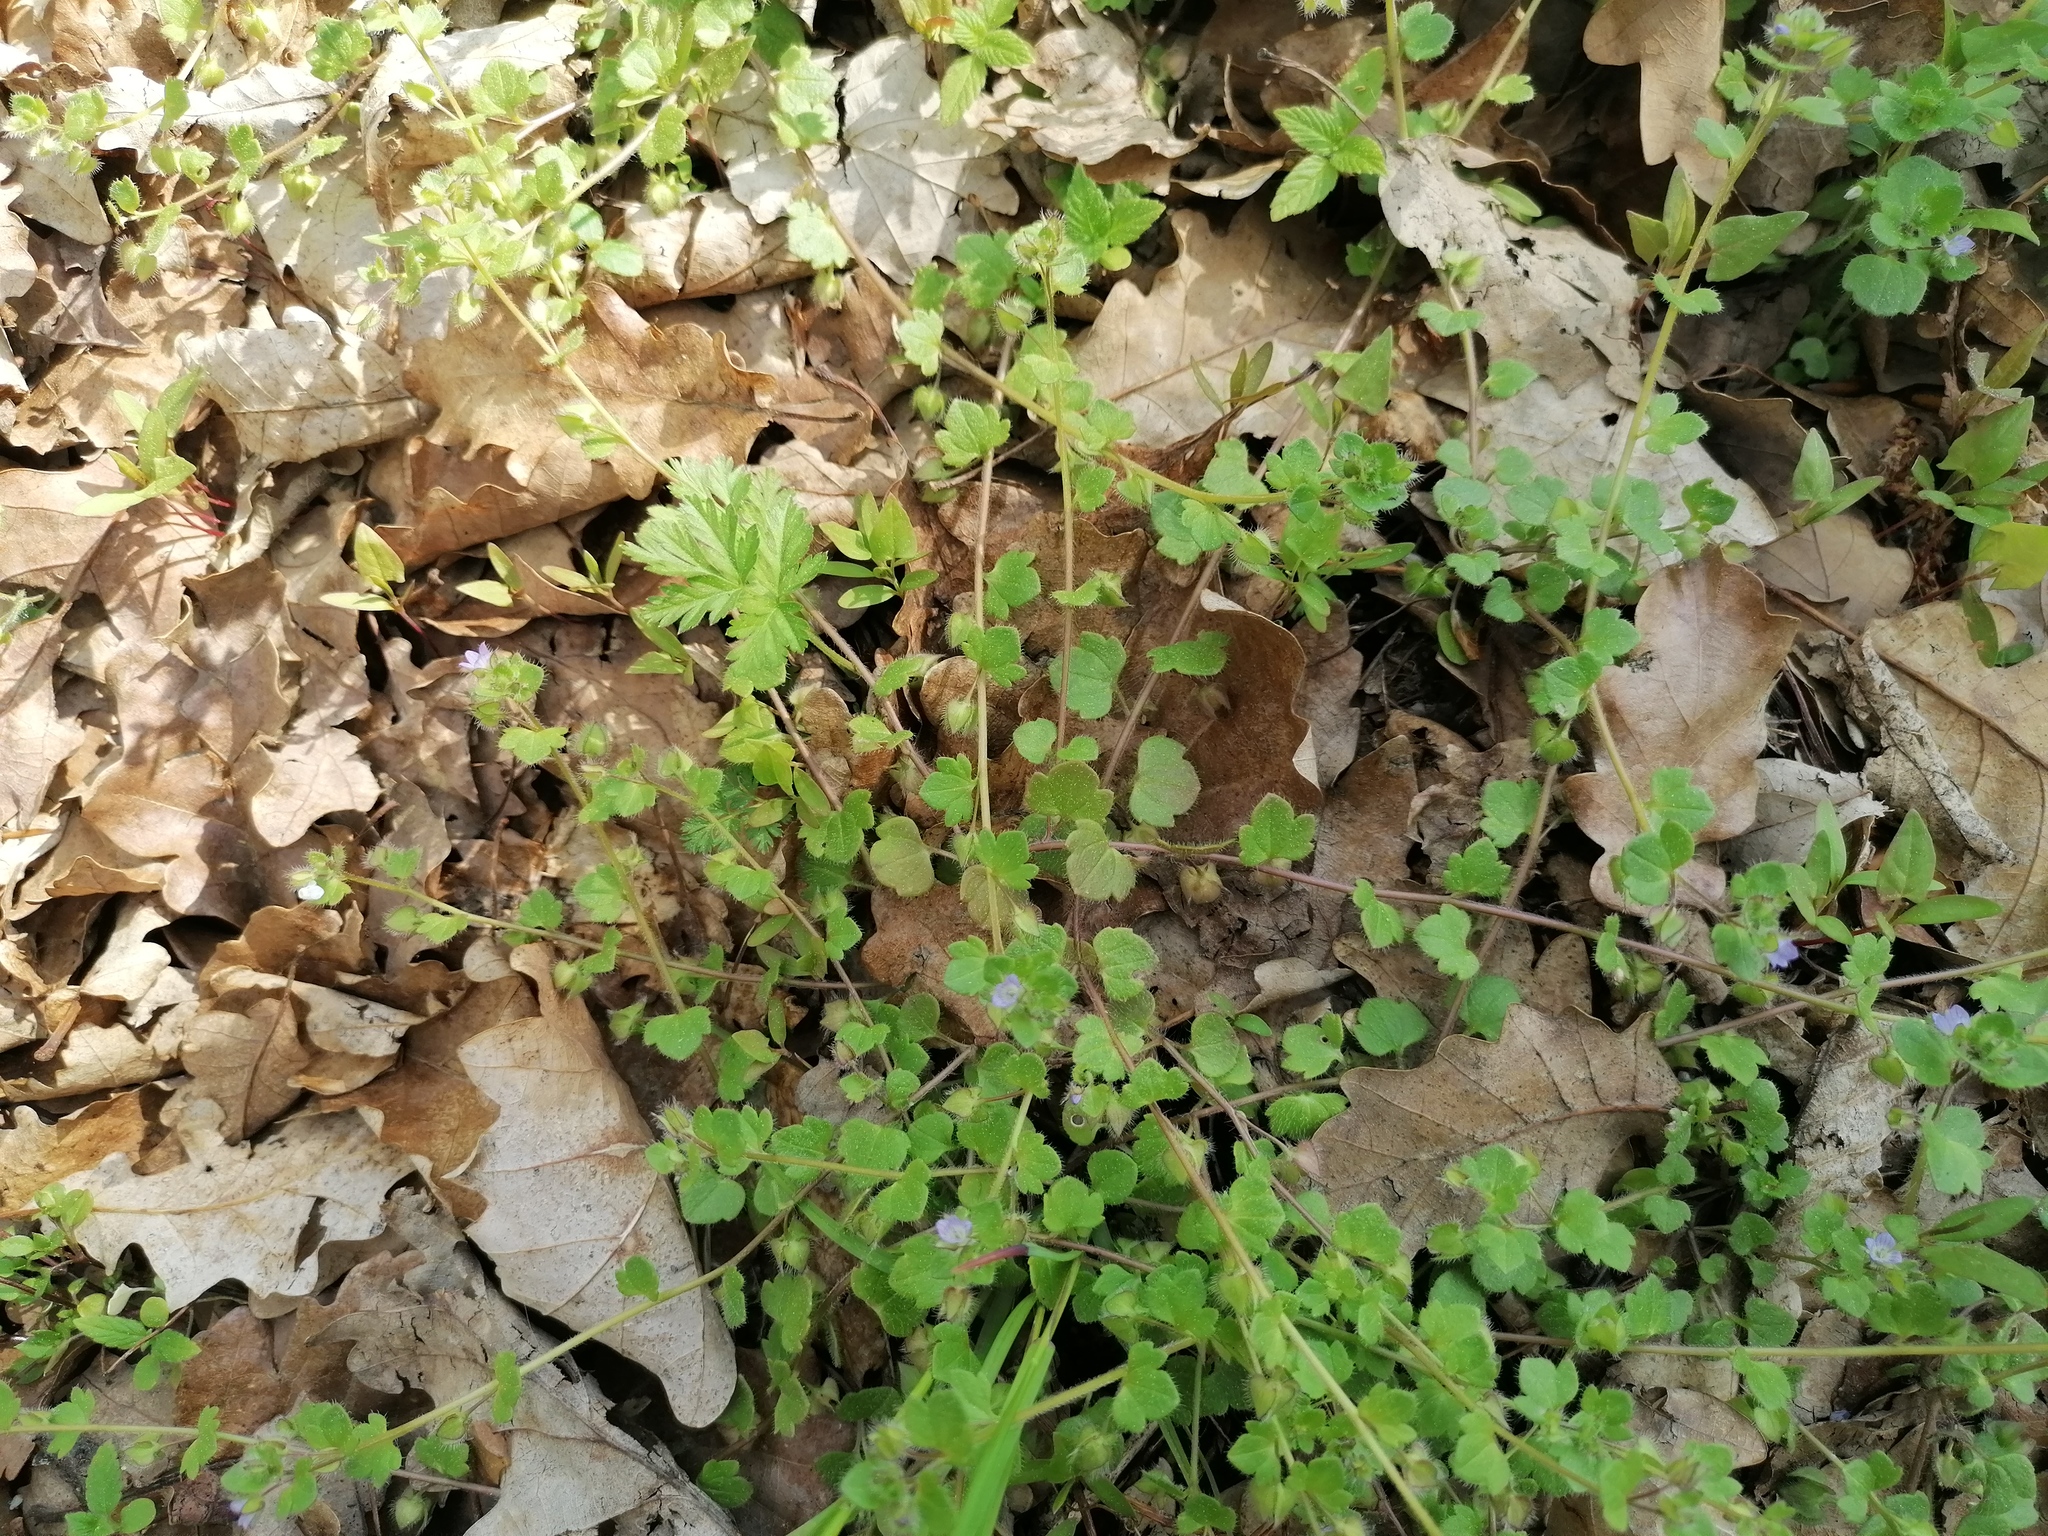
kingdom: Plantae
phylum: Tracheophyta
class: Magnoliopsida
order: Lamiales
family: Plantaginaceae
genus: Veronica
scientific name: Veronica hederifolia
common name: Ivy-leaved speedwell
